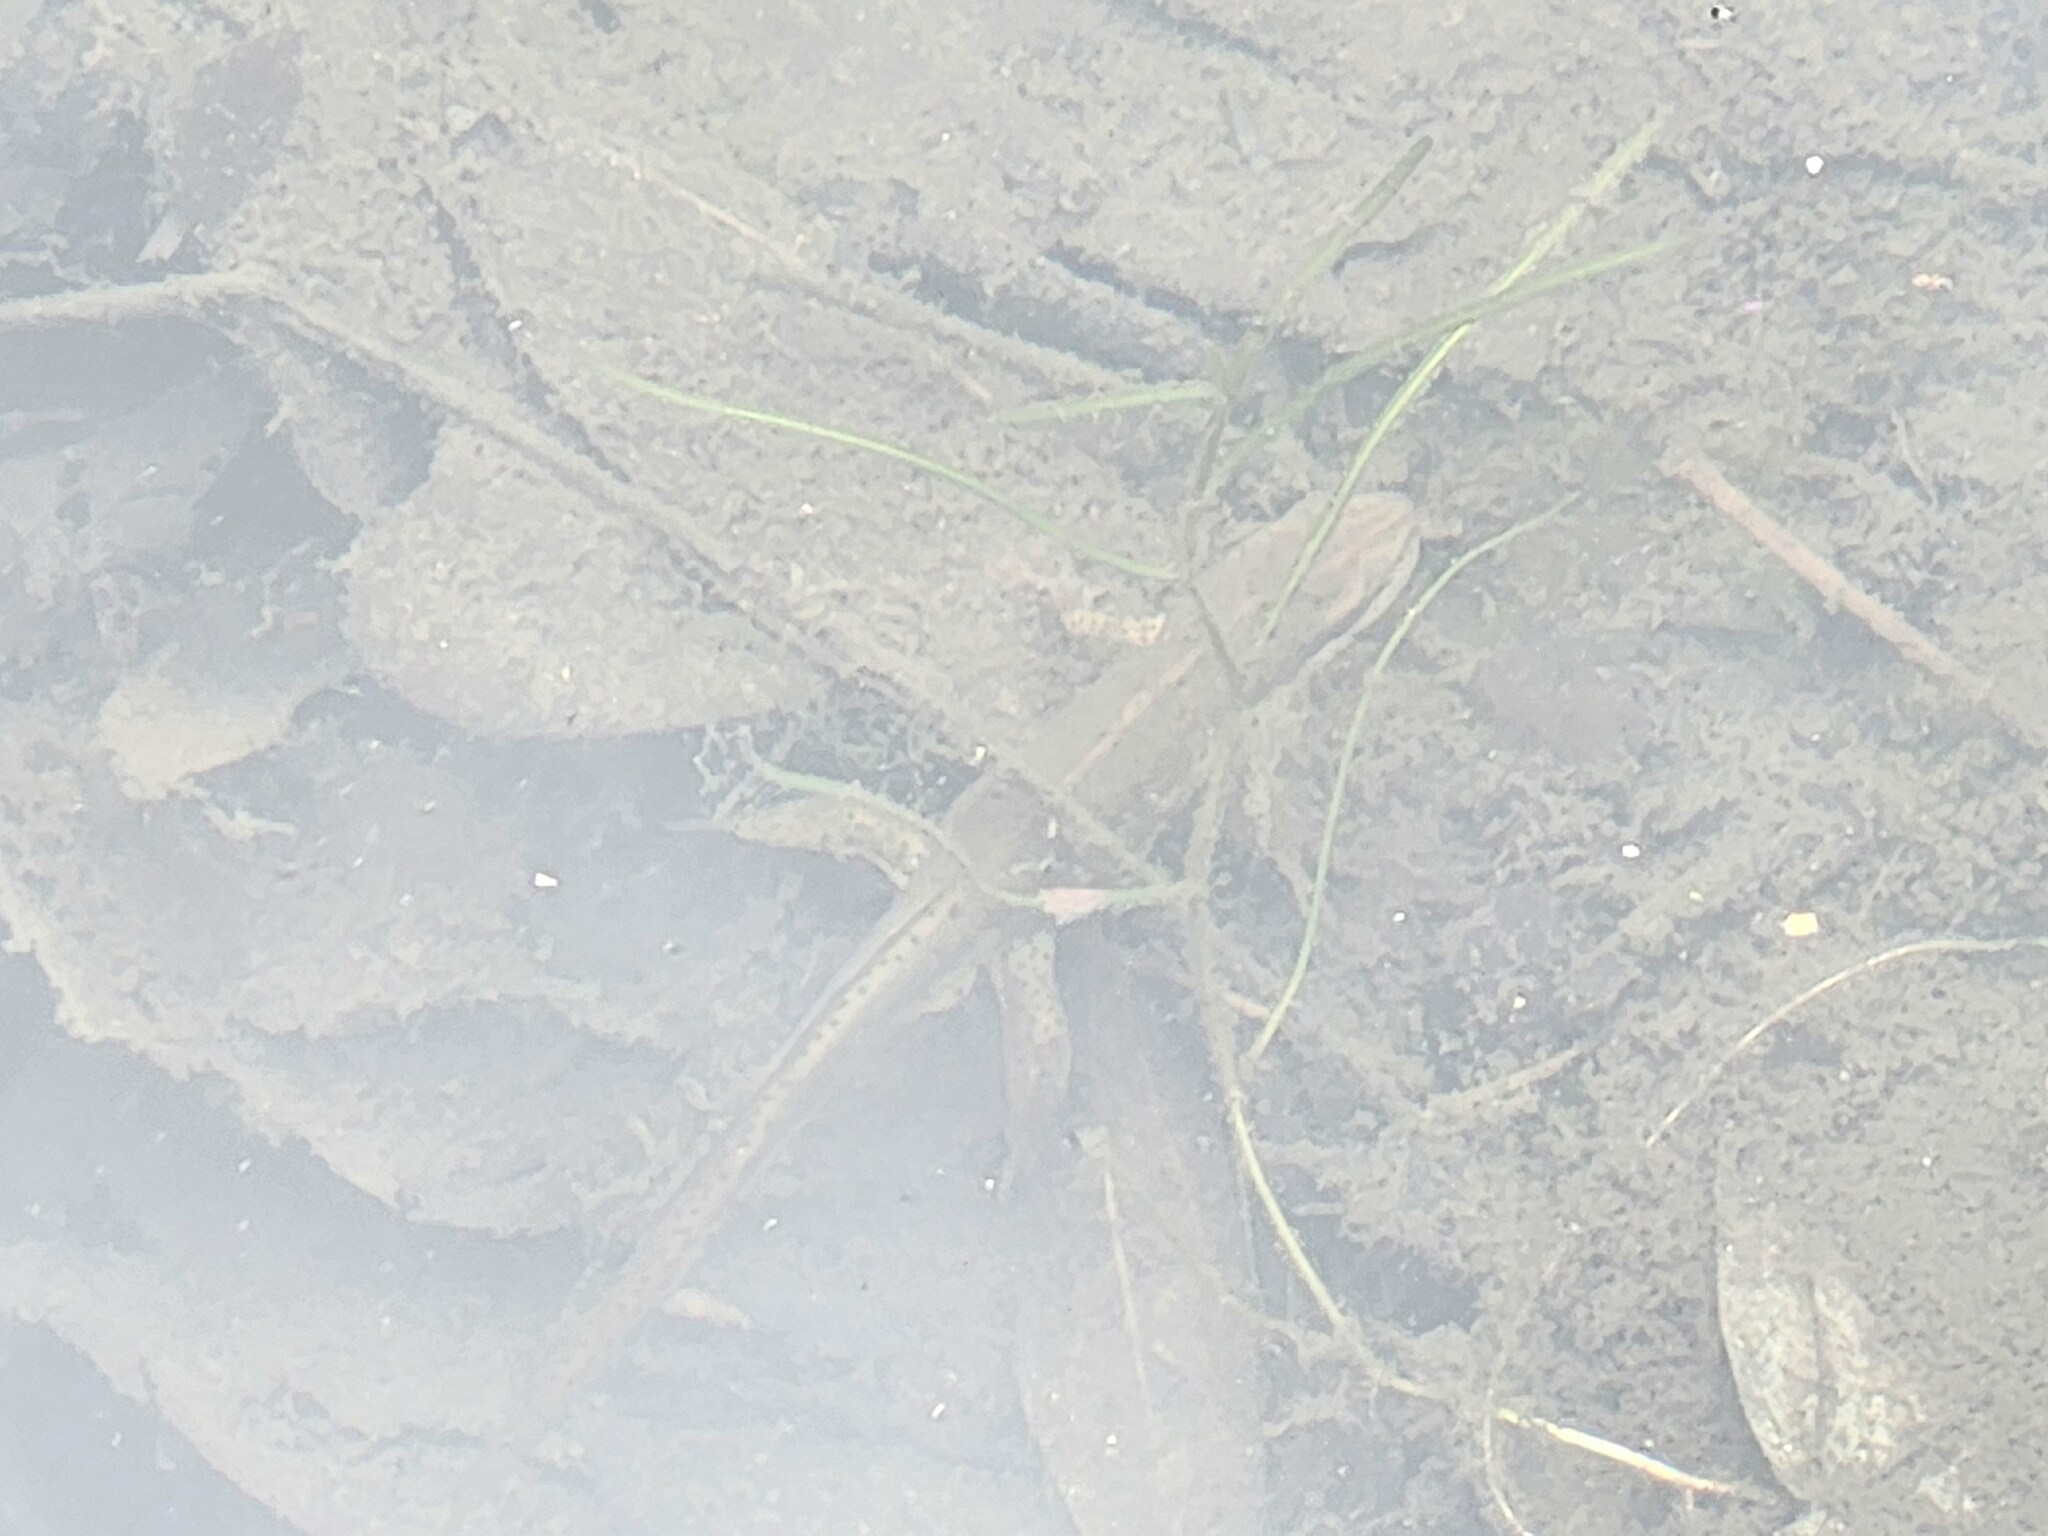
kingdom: Animalia
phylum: Chordata
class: Amphibia
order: Caudata
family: Salamandridae
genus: Notophthalmus
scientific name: Notophthalmus viridescens
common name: Eastern newt
